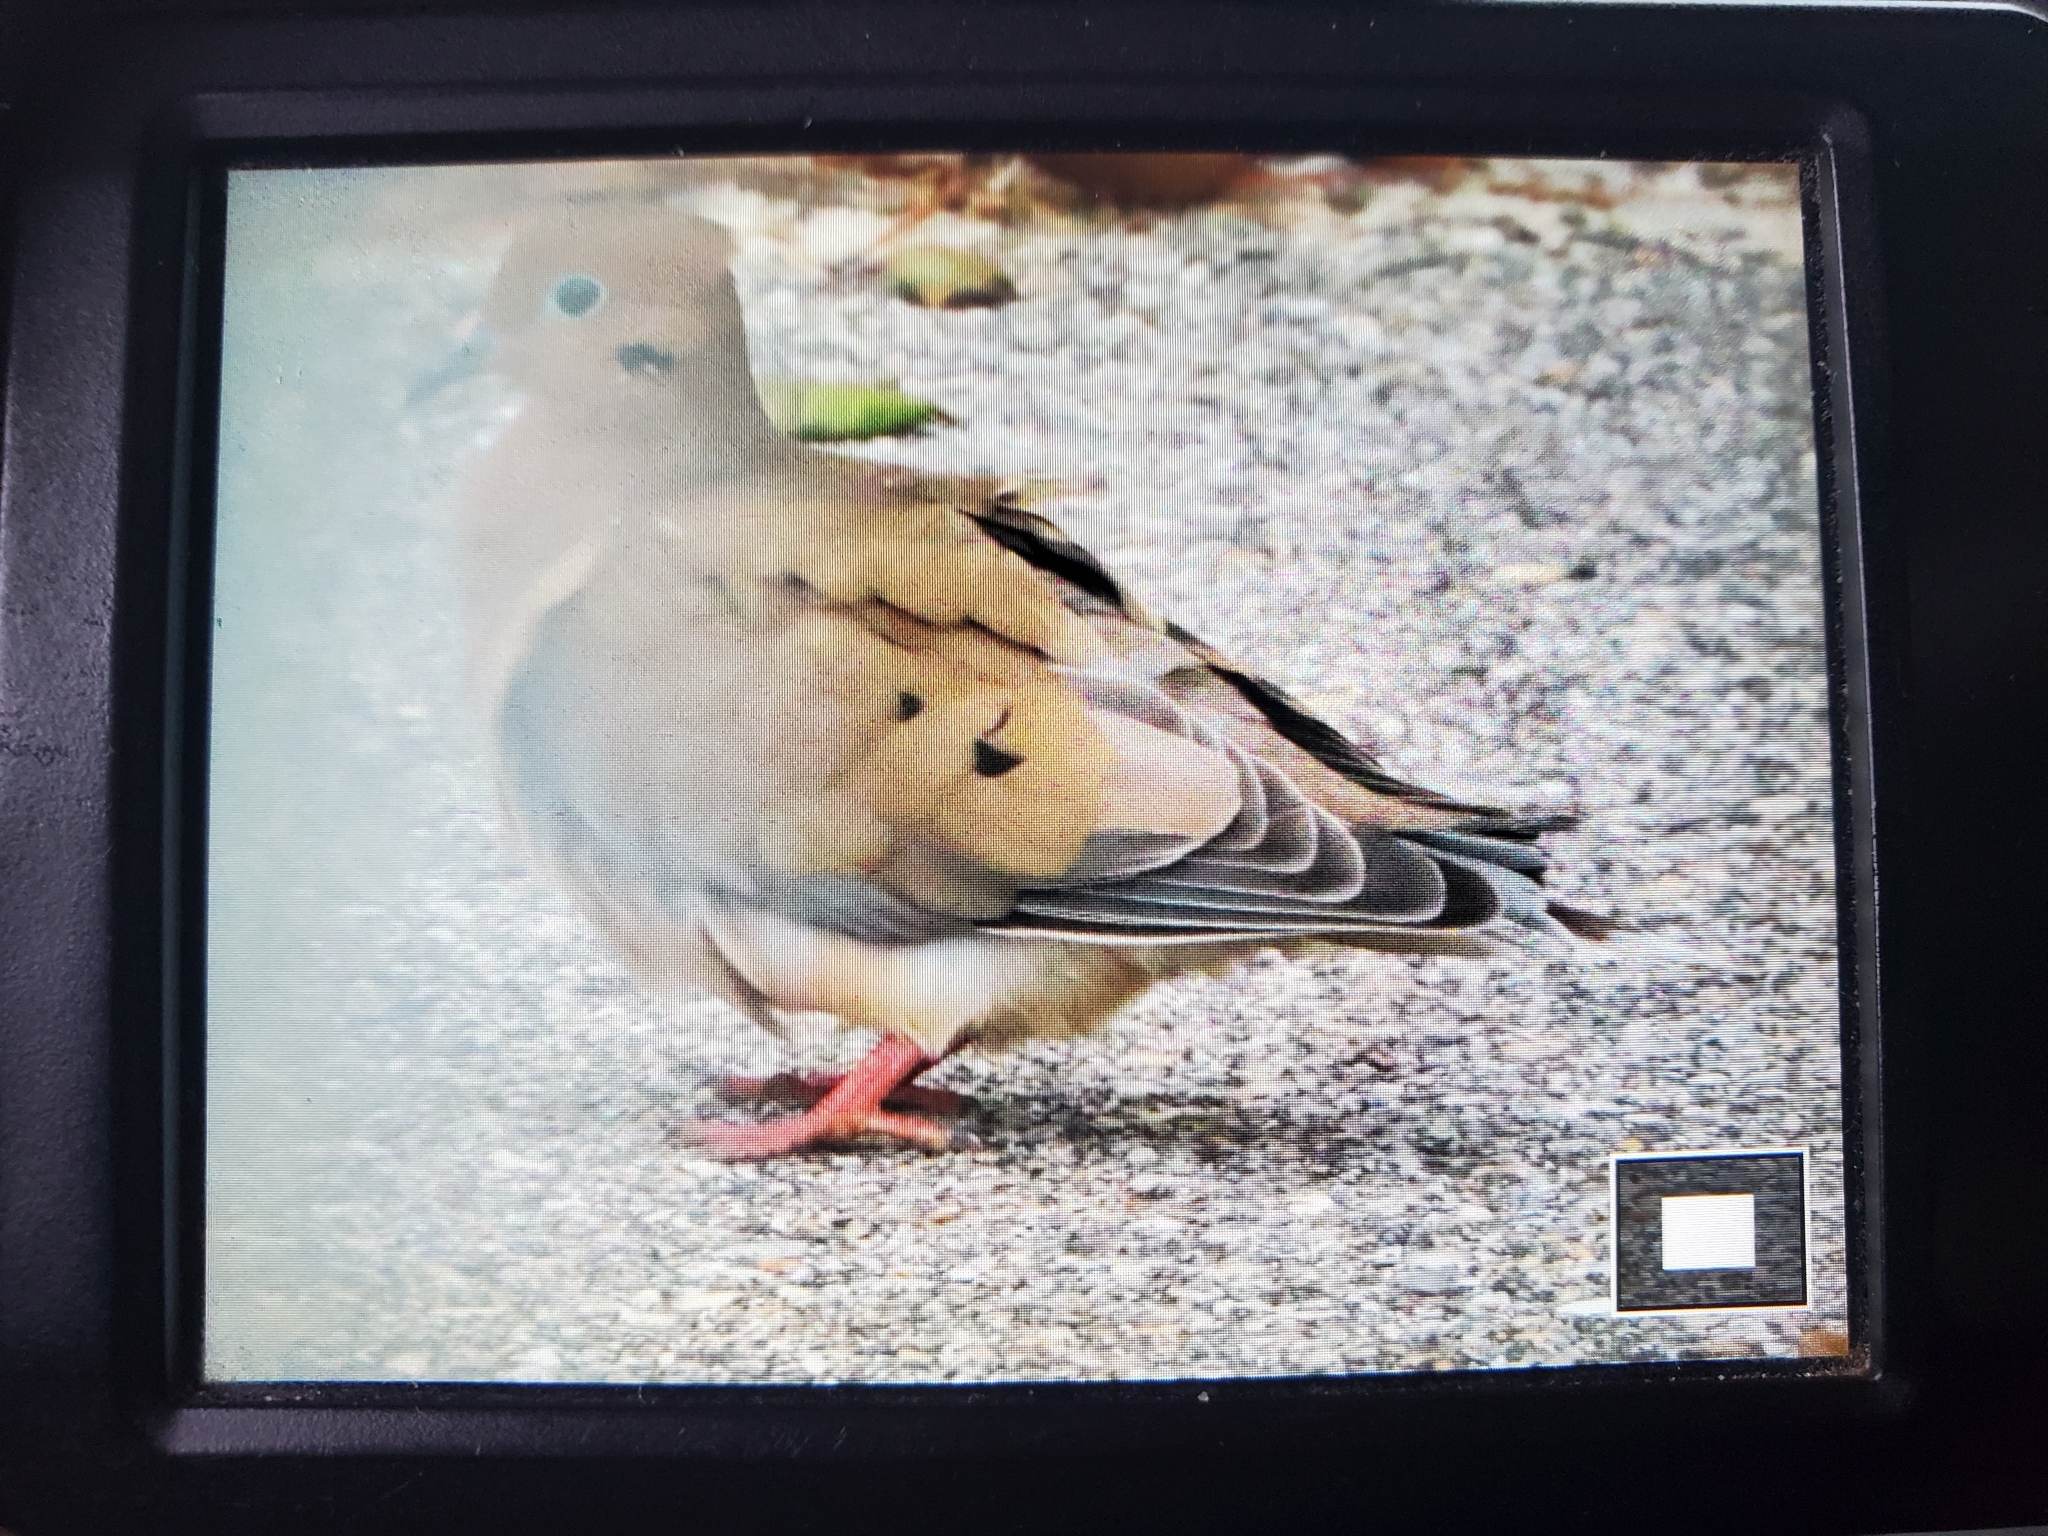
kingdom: Animalia
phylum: Chordata
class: Aves
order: Columbiformes
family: Columbidae
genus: Zenaida
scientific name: Zenaida macroura
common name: Mourning dove
